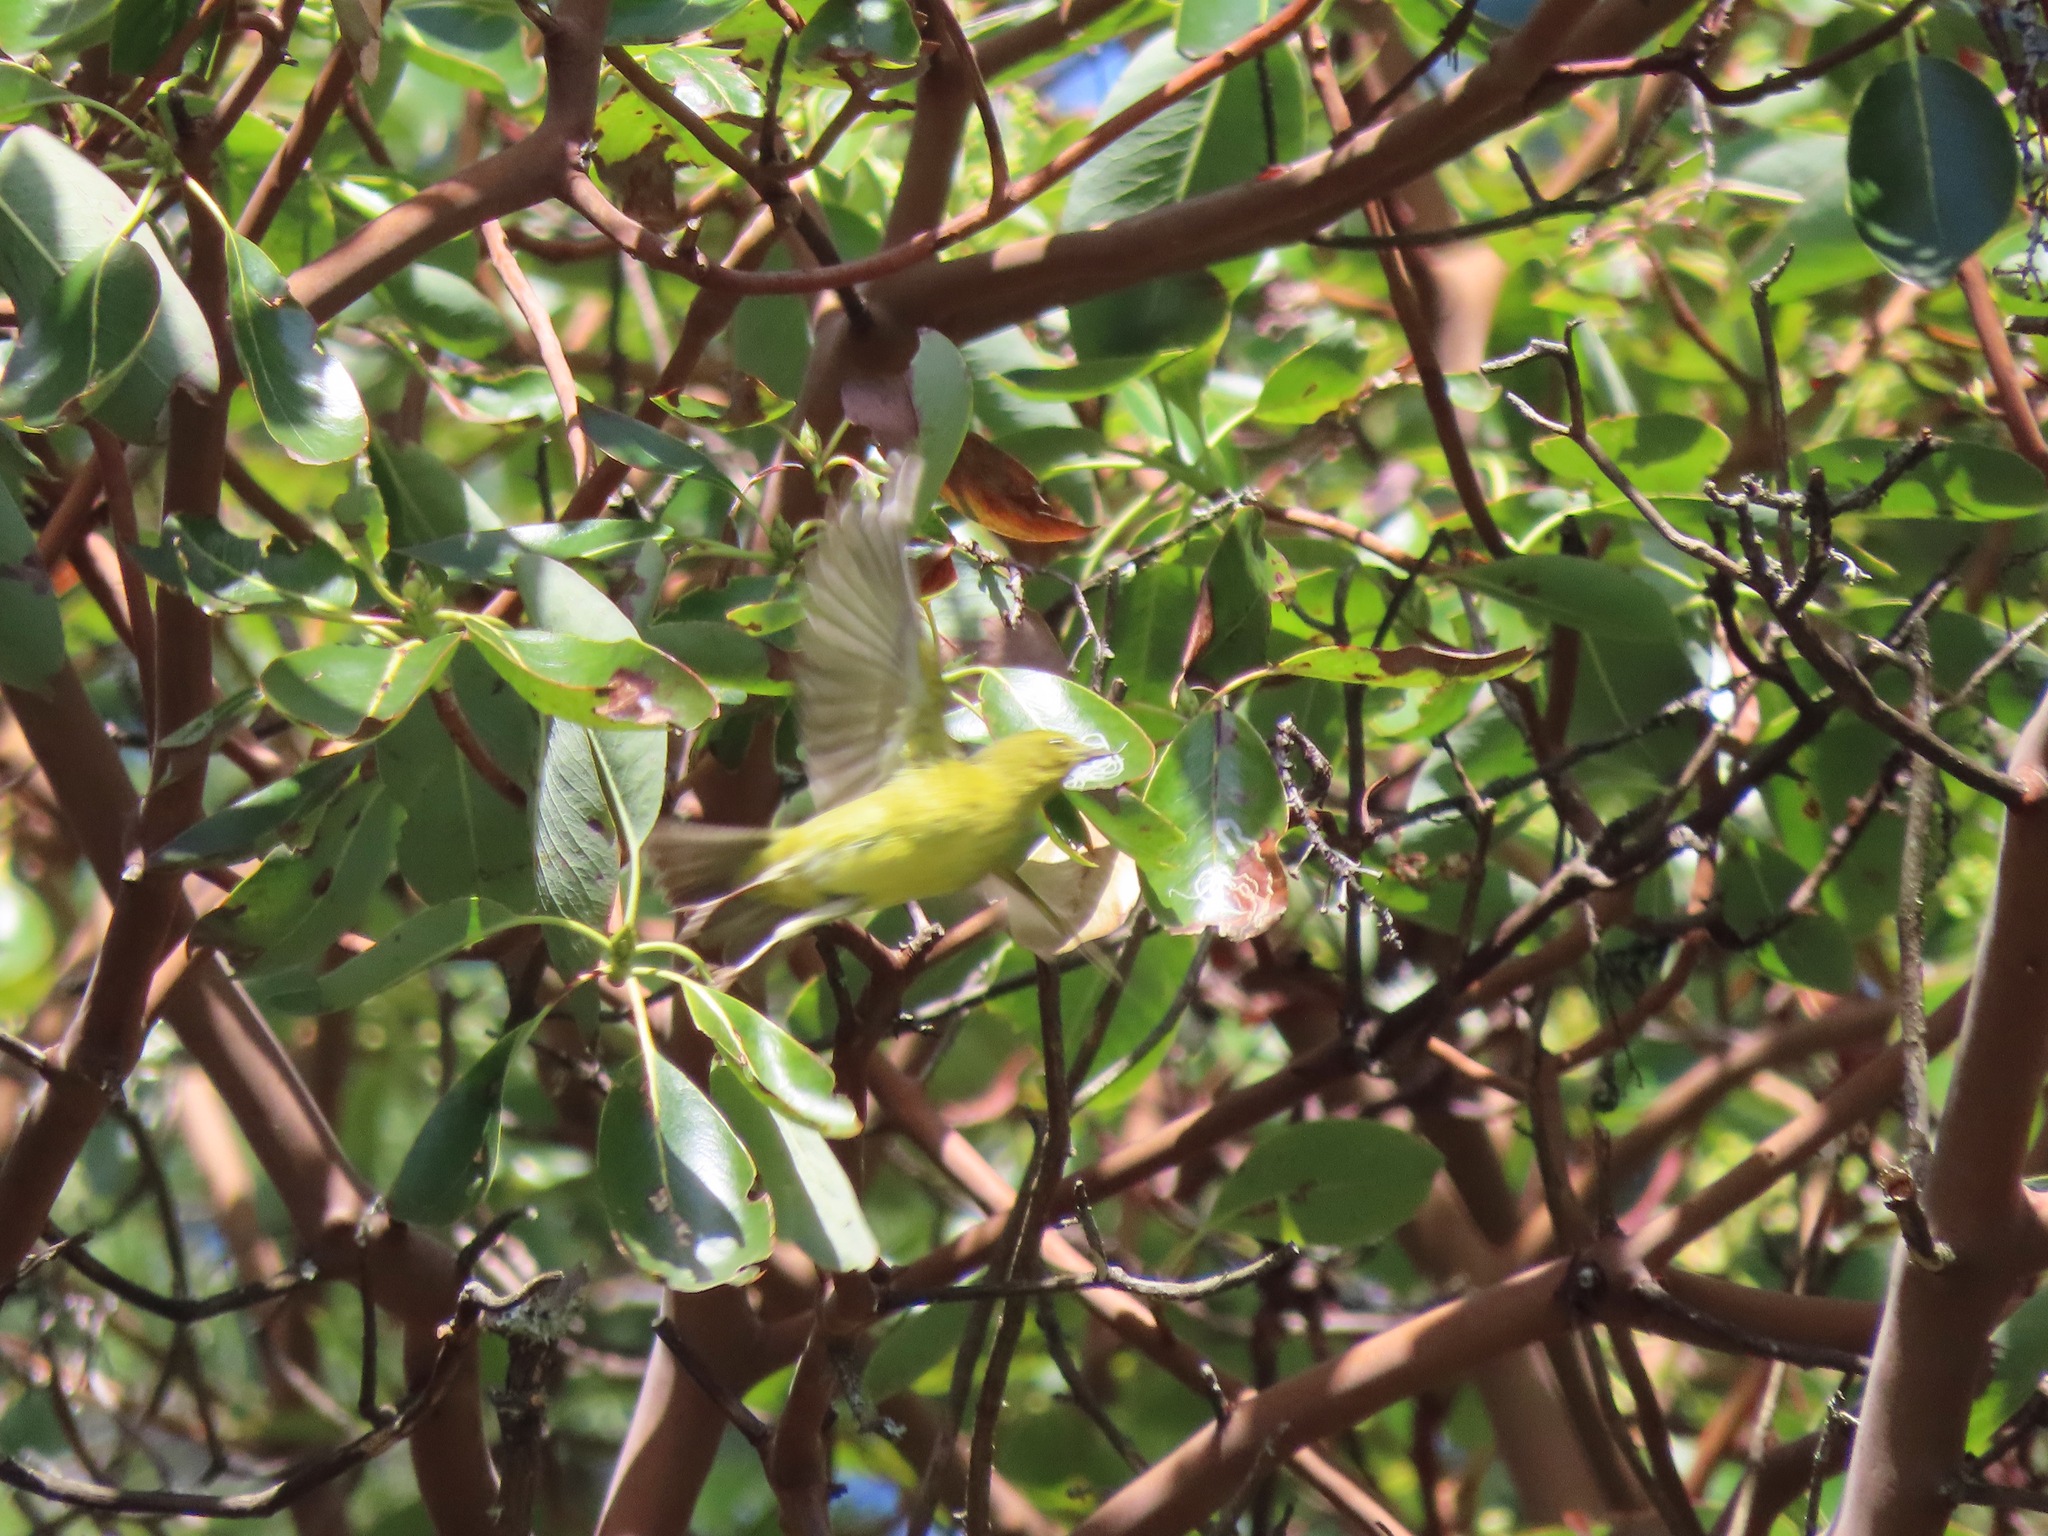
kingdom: Animalia
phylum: Chordata
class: Aves
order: Passeriformes
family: Parulidae
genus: Leiothlypis
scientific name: Leiothlypis celata
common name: Orange-crowned warbler
